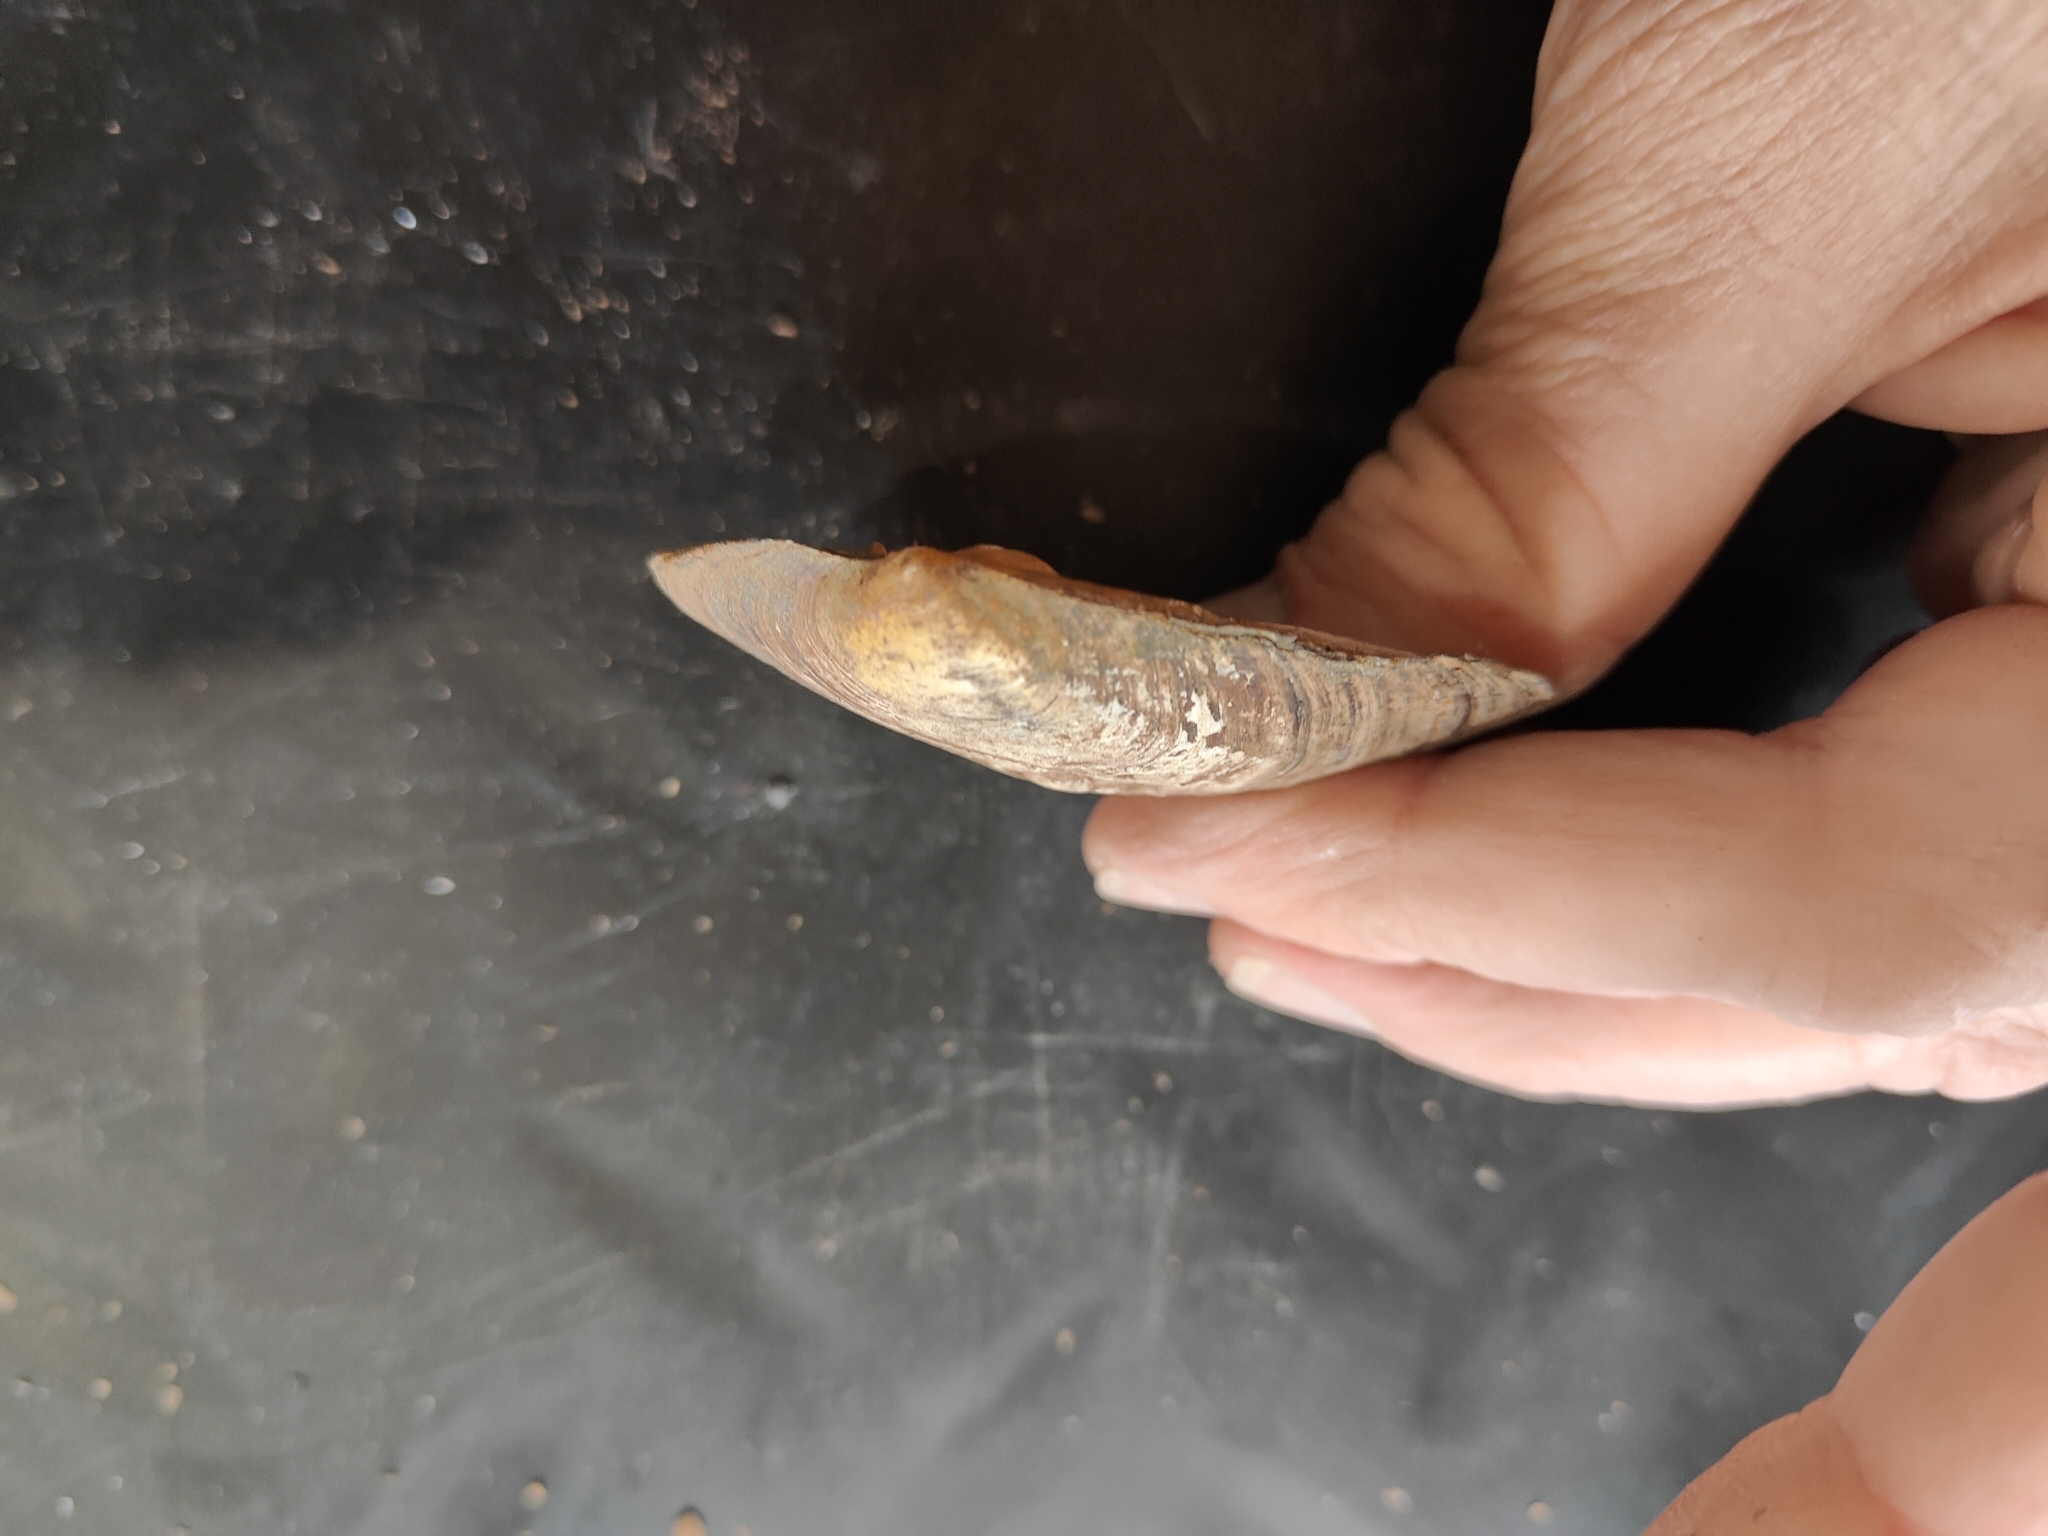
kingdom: Animalia
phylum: Mollusca
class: Bivalvia
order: Unionida
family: Unionidae
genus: Amblema
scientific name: Amblema plicata
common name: Threeridge
